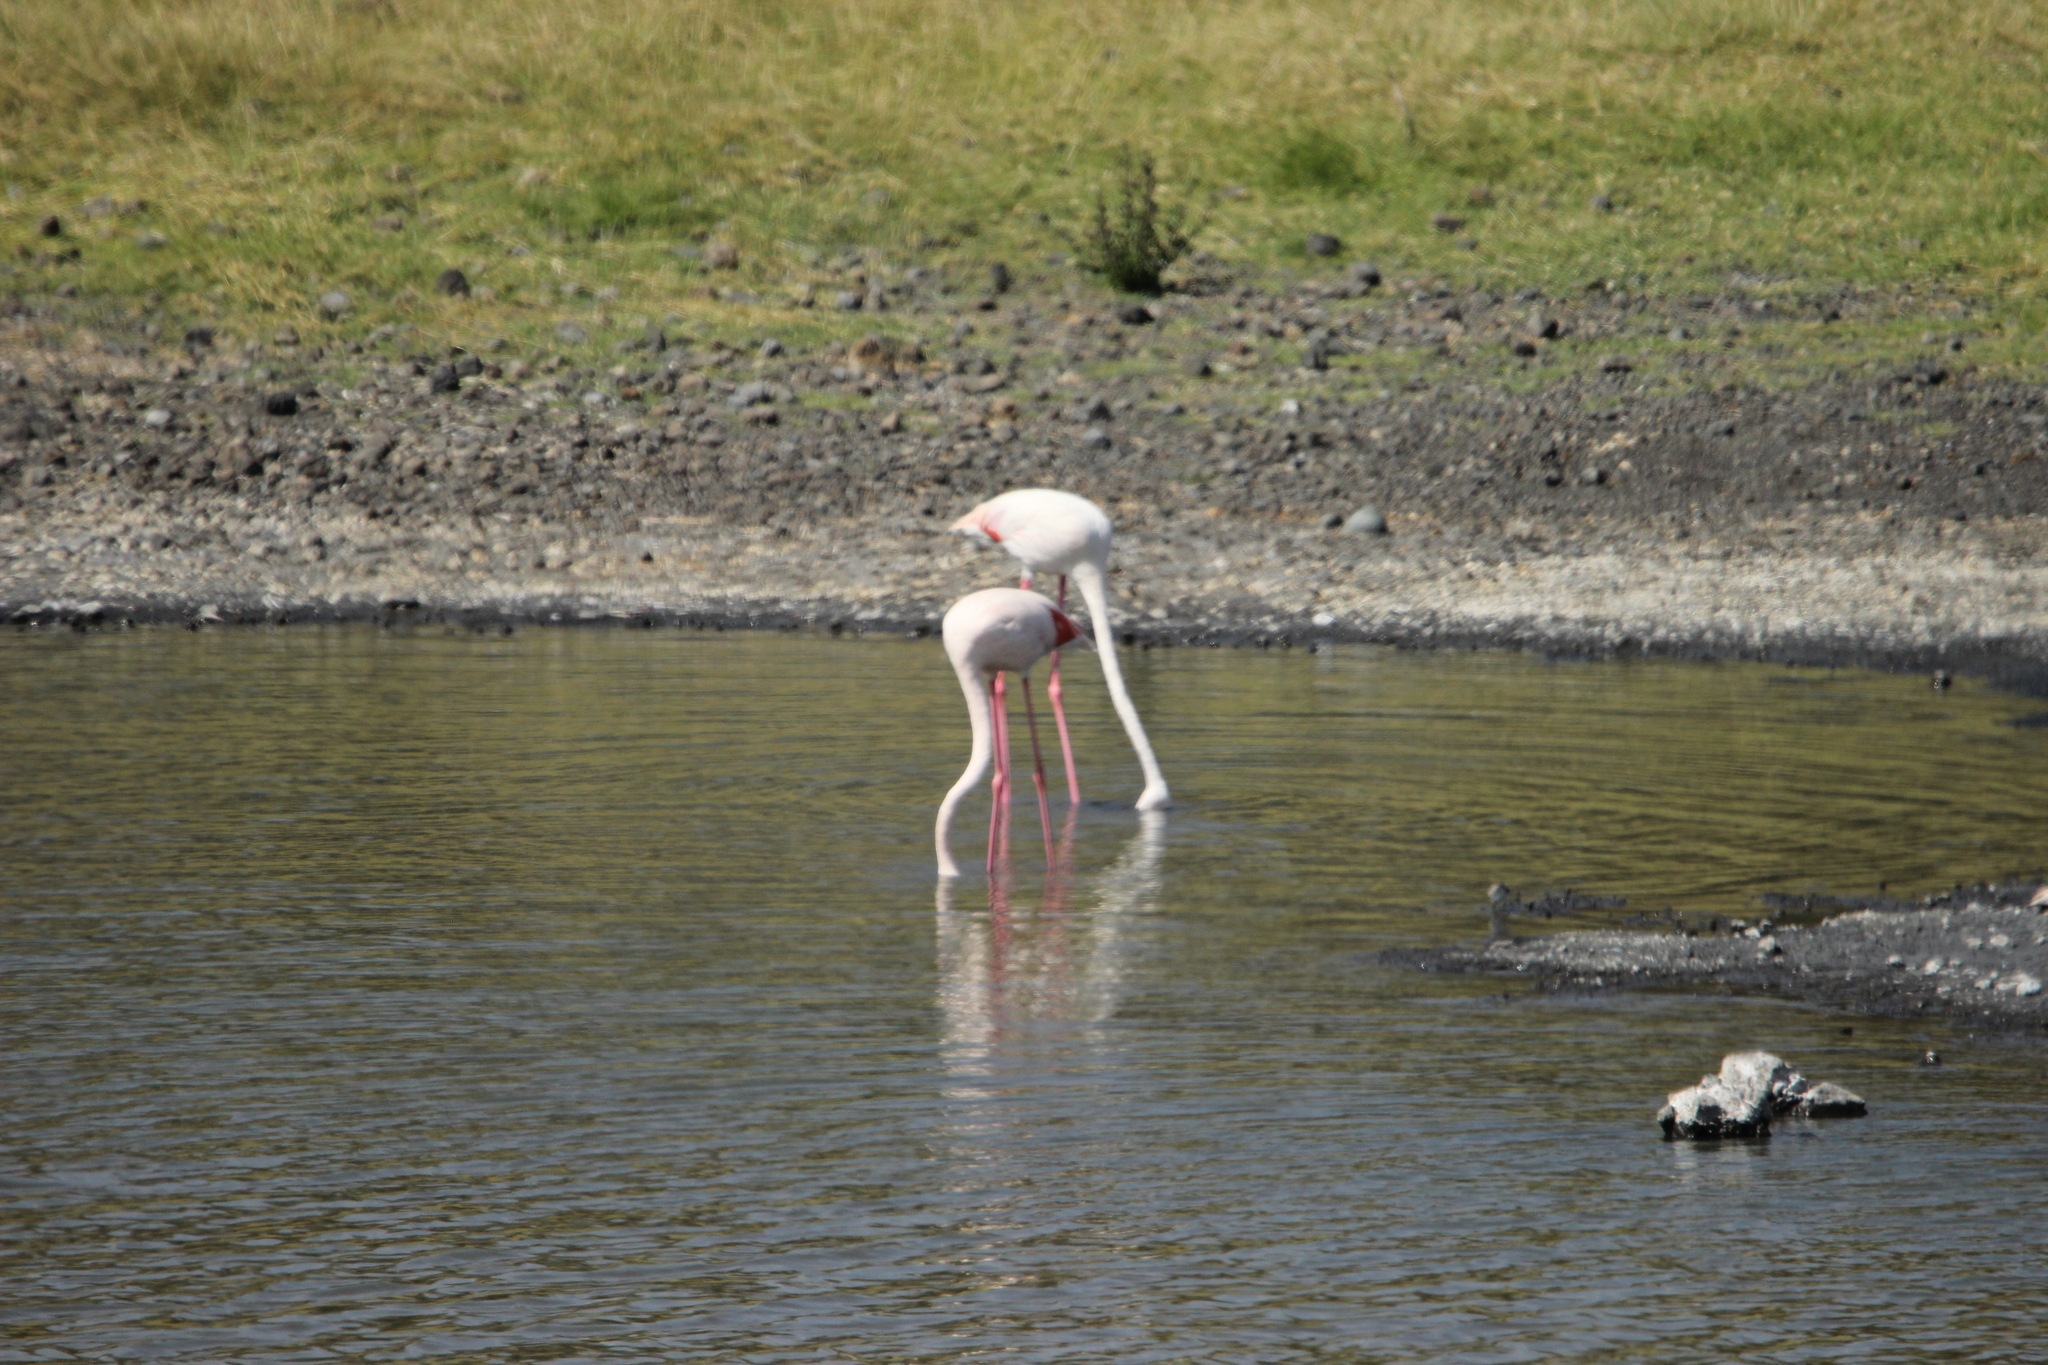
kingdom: Animalia
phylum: Chordata
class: Aves
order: Phoenicopteriformes
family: Phoenicopteridae
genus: Phoenicopterus
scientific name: Phoenicopterus roseus
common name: Greater flamingo
